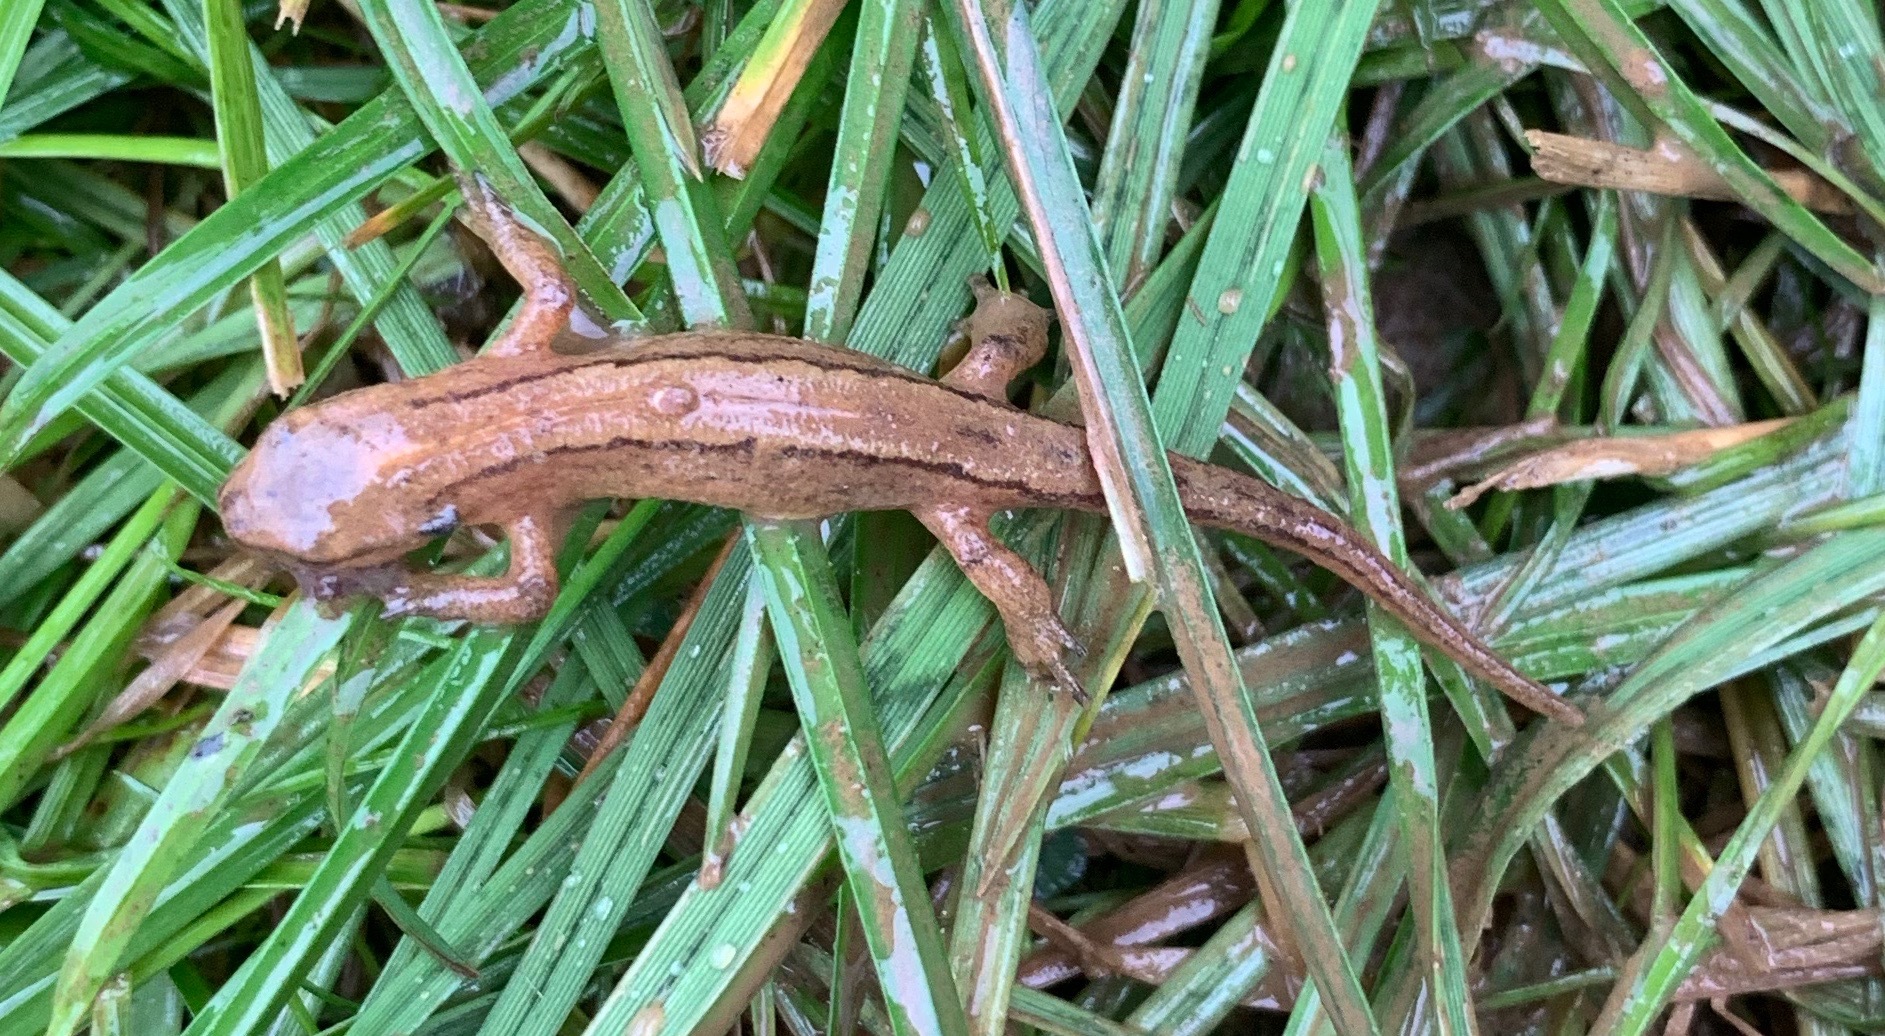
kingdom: Animalia
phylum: Chordata
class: Amphibia
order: Caudata
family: Salamandridae
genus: Lissotriton
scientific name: Lissotriton vulgaris
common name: Smooth newt
